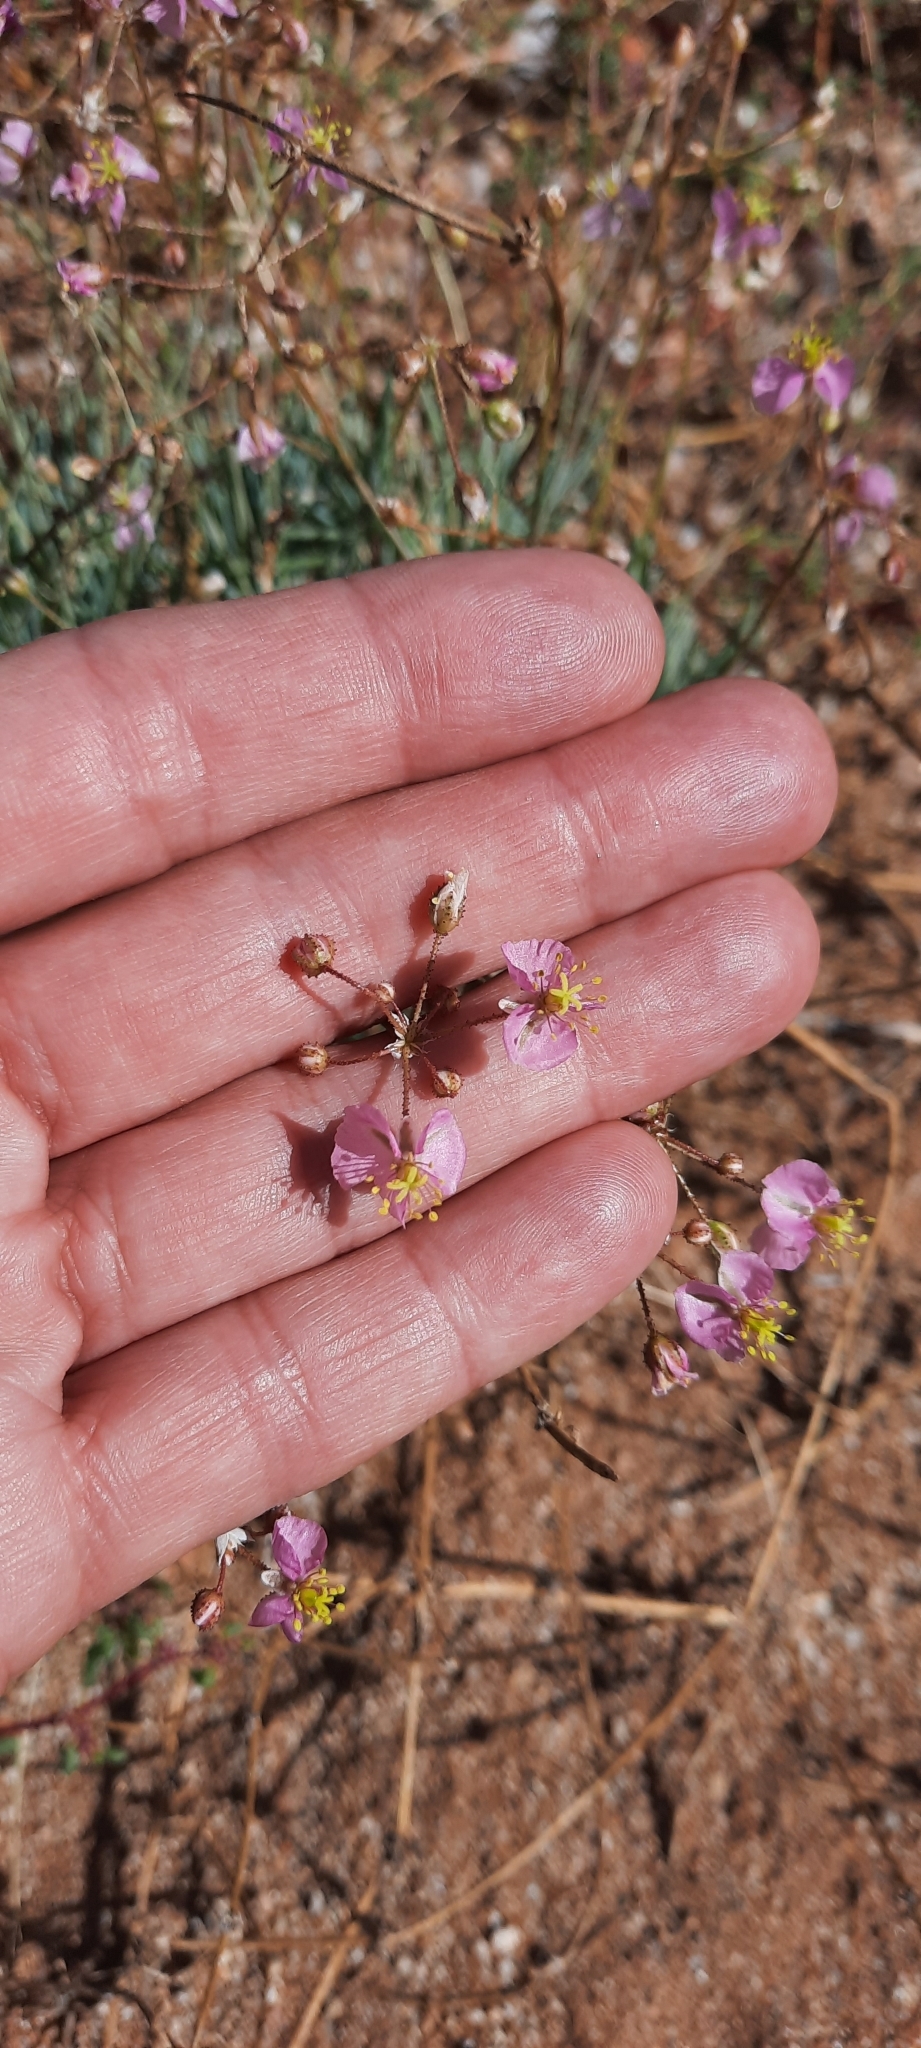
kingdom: Plantae
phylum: Tracheophyta
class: Magnoliopsida
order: Caryophyllales
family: Kewaceae
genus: Kewa
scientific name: Kewa salsoloides
